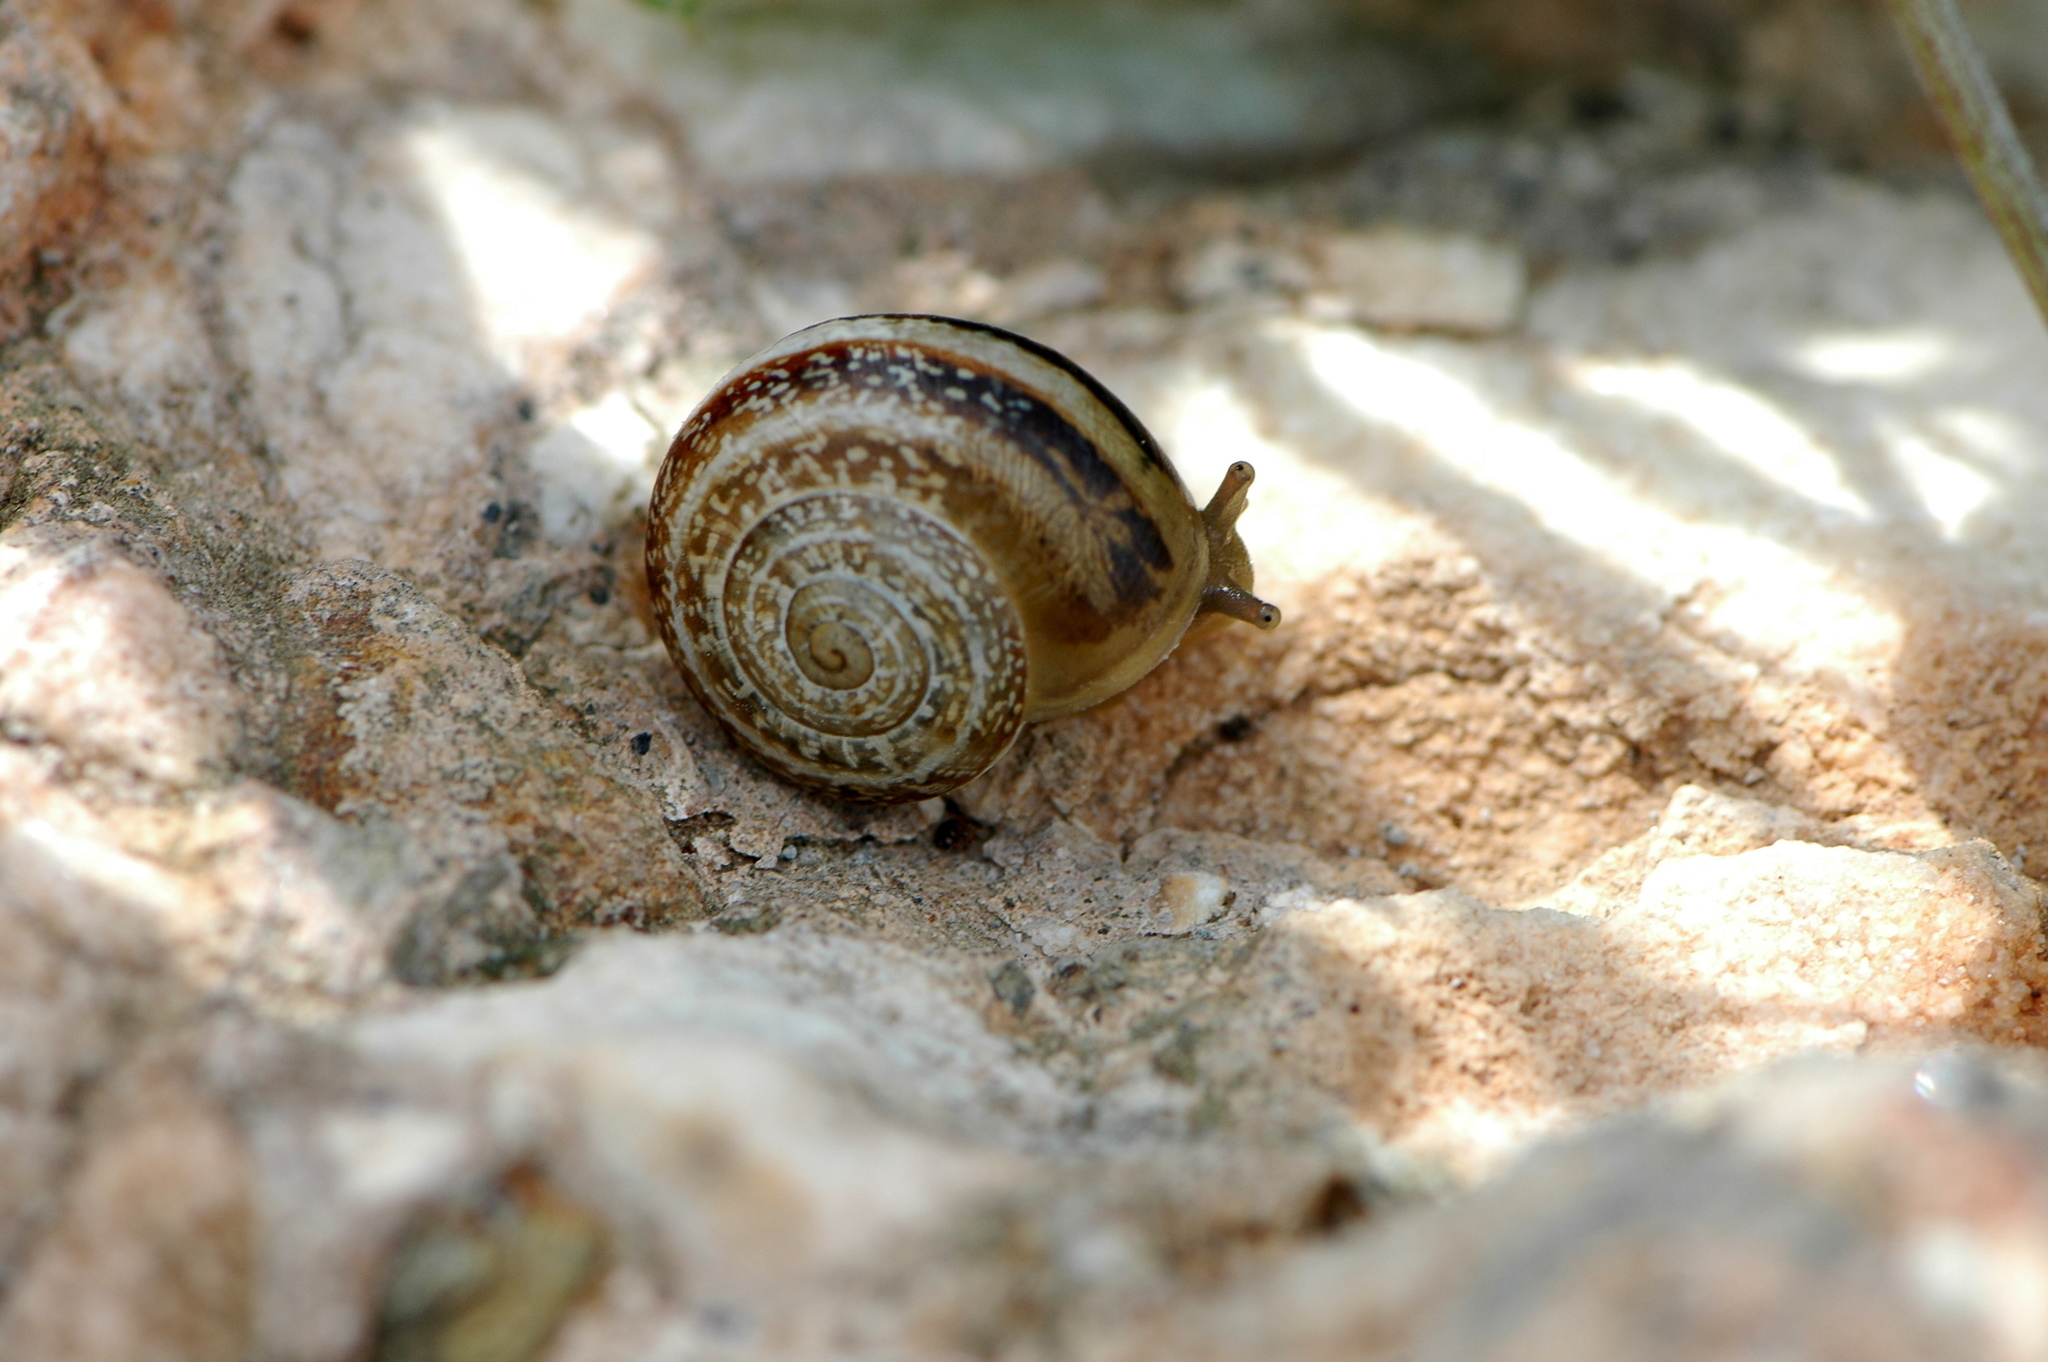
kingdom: Animalia
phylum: Mollusca
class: Gastropoda
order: Stylommatophora
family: Helicidae
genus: Otala
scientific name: Otala lactea
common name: Milk snail
